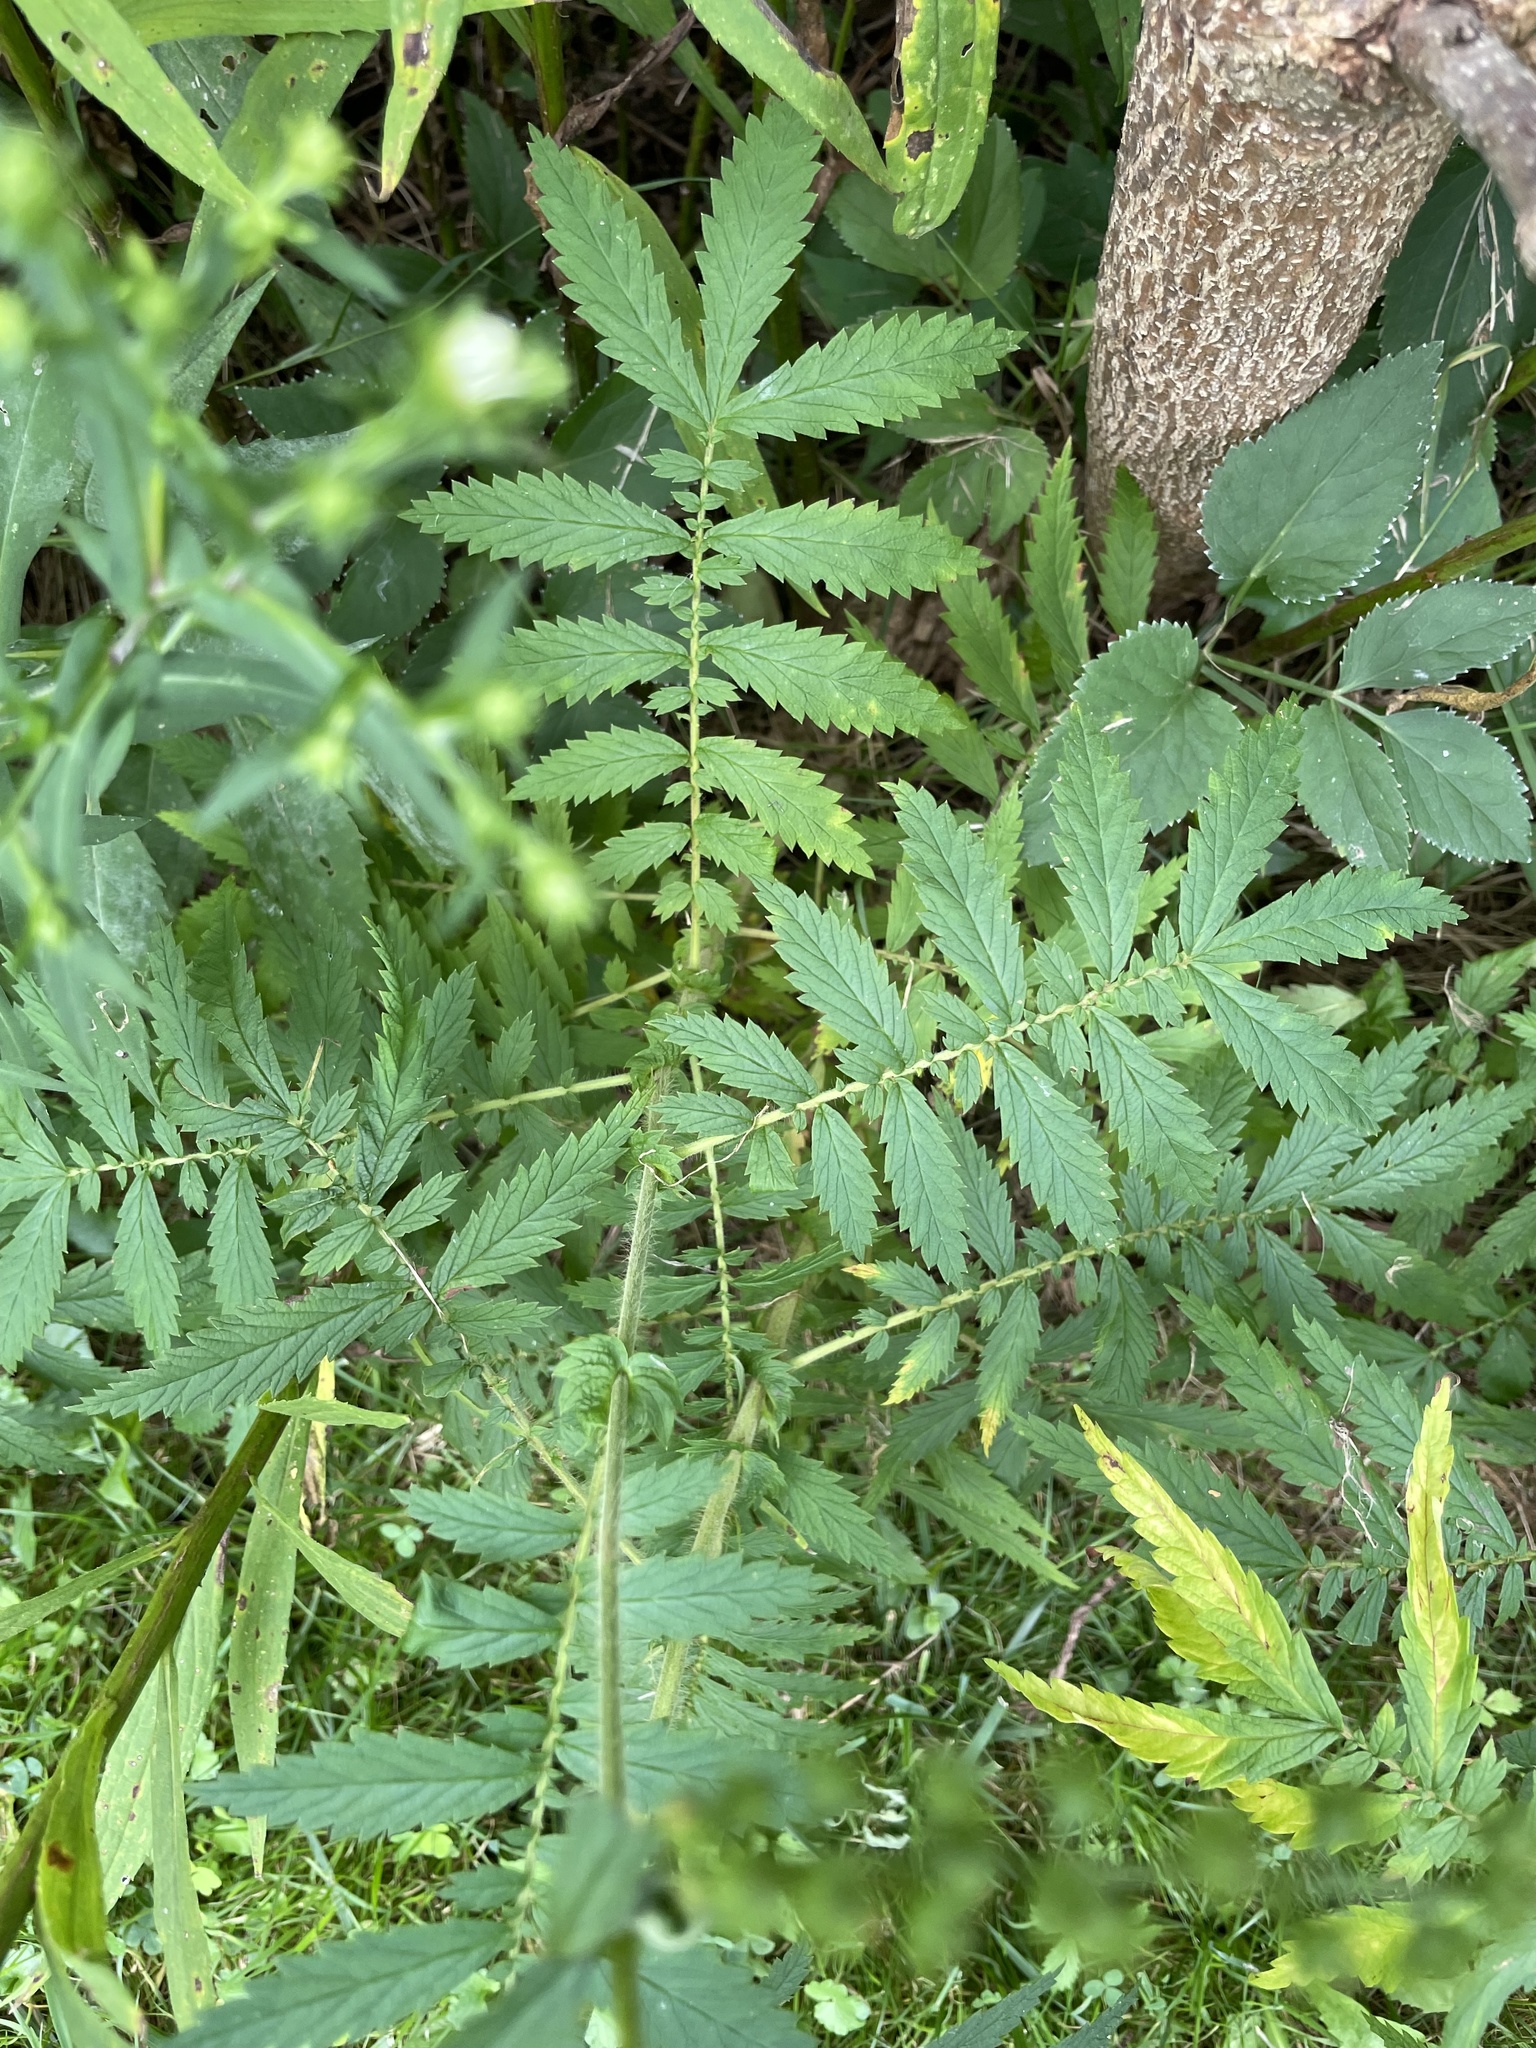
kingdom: Plantae
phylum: Tracheophyta
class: Magnoliopsida
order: Rosales
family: Rosaceae
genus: Agrimonia
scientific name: Agrimonia parviflora
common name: Harvest-lice
